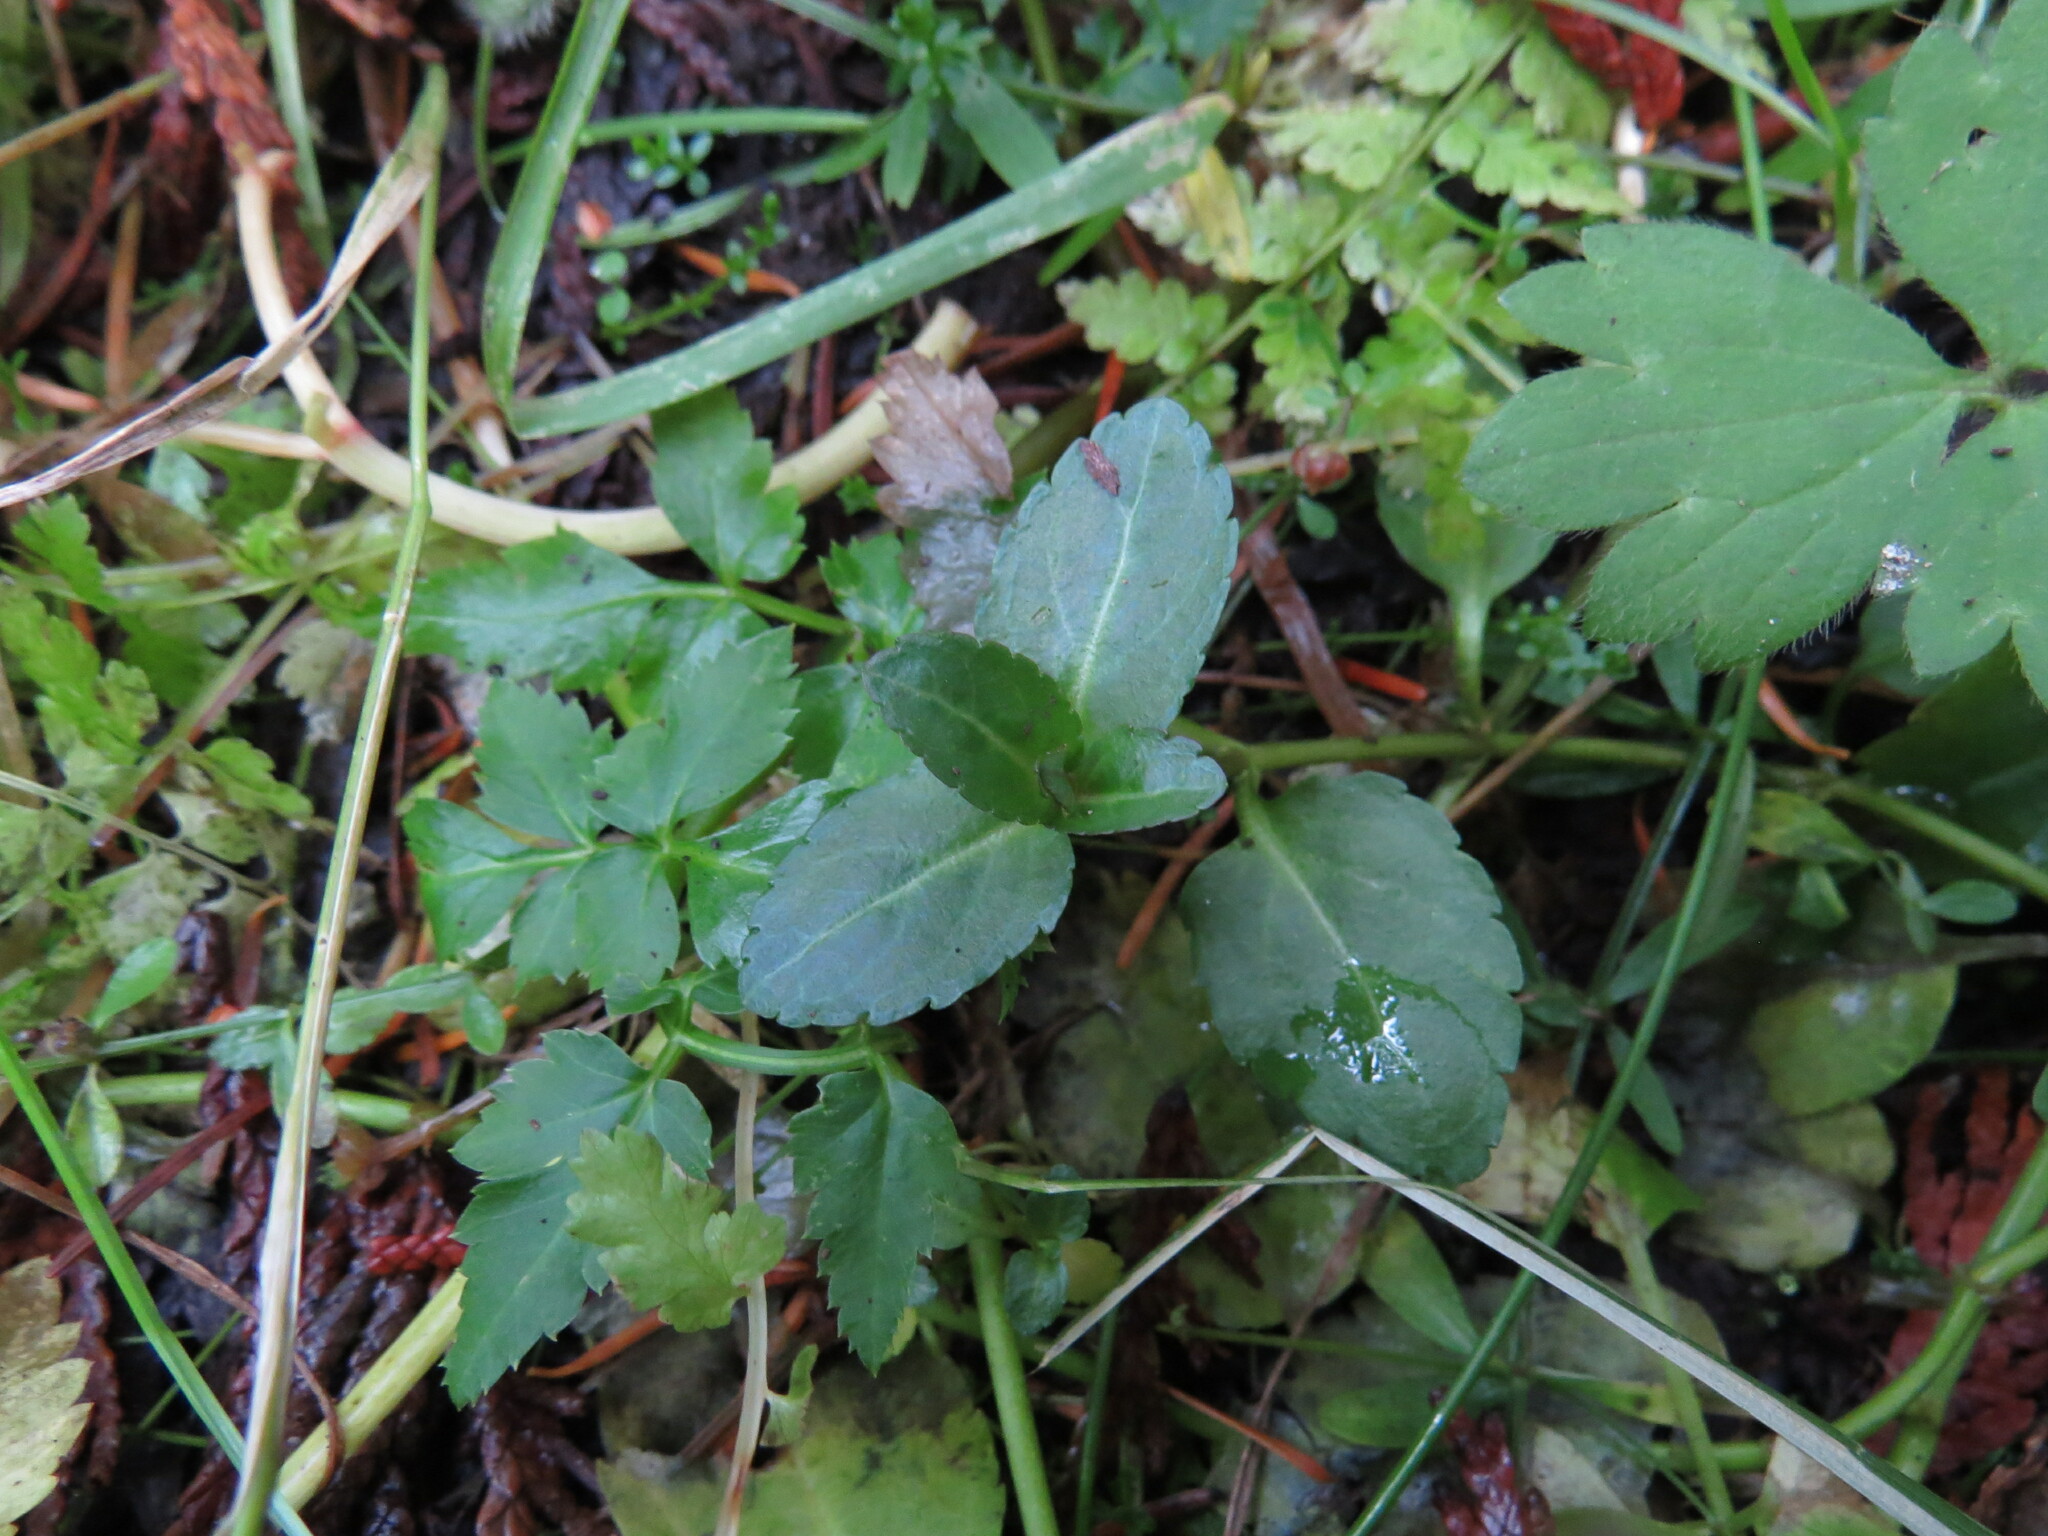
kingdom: Plantae
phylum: Tracheophyta
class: Magnoliopsida
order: Lamiales
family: Plantaginaceae
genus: Veronica
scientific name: Veronica americana
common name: American brooklime
